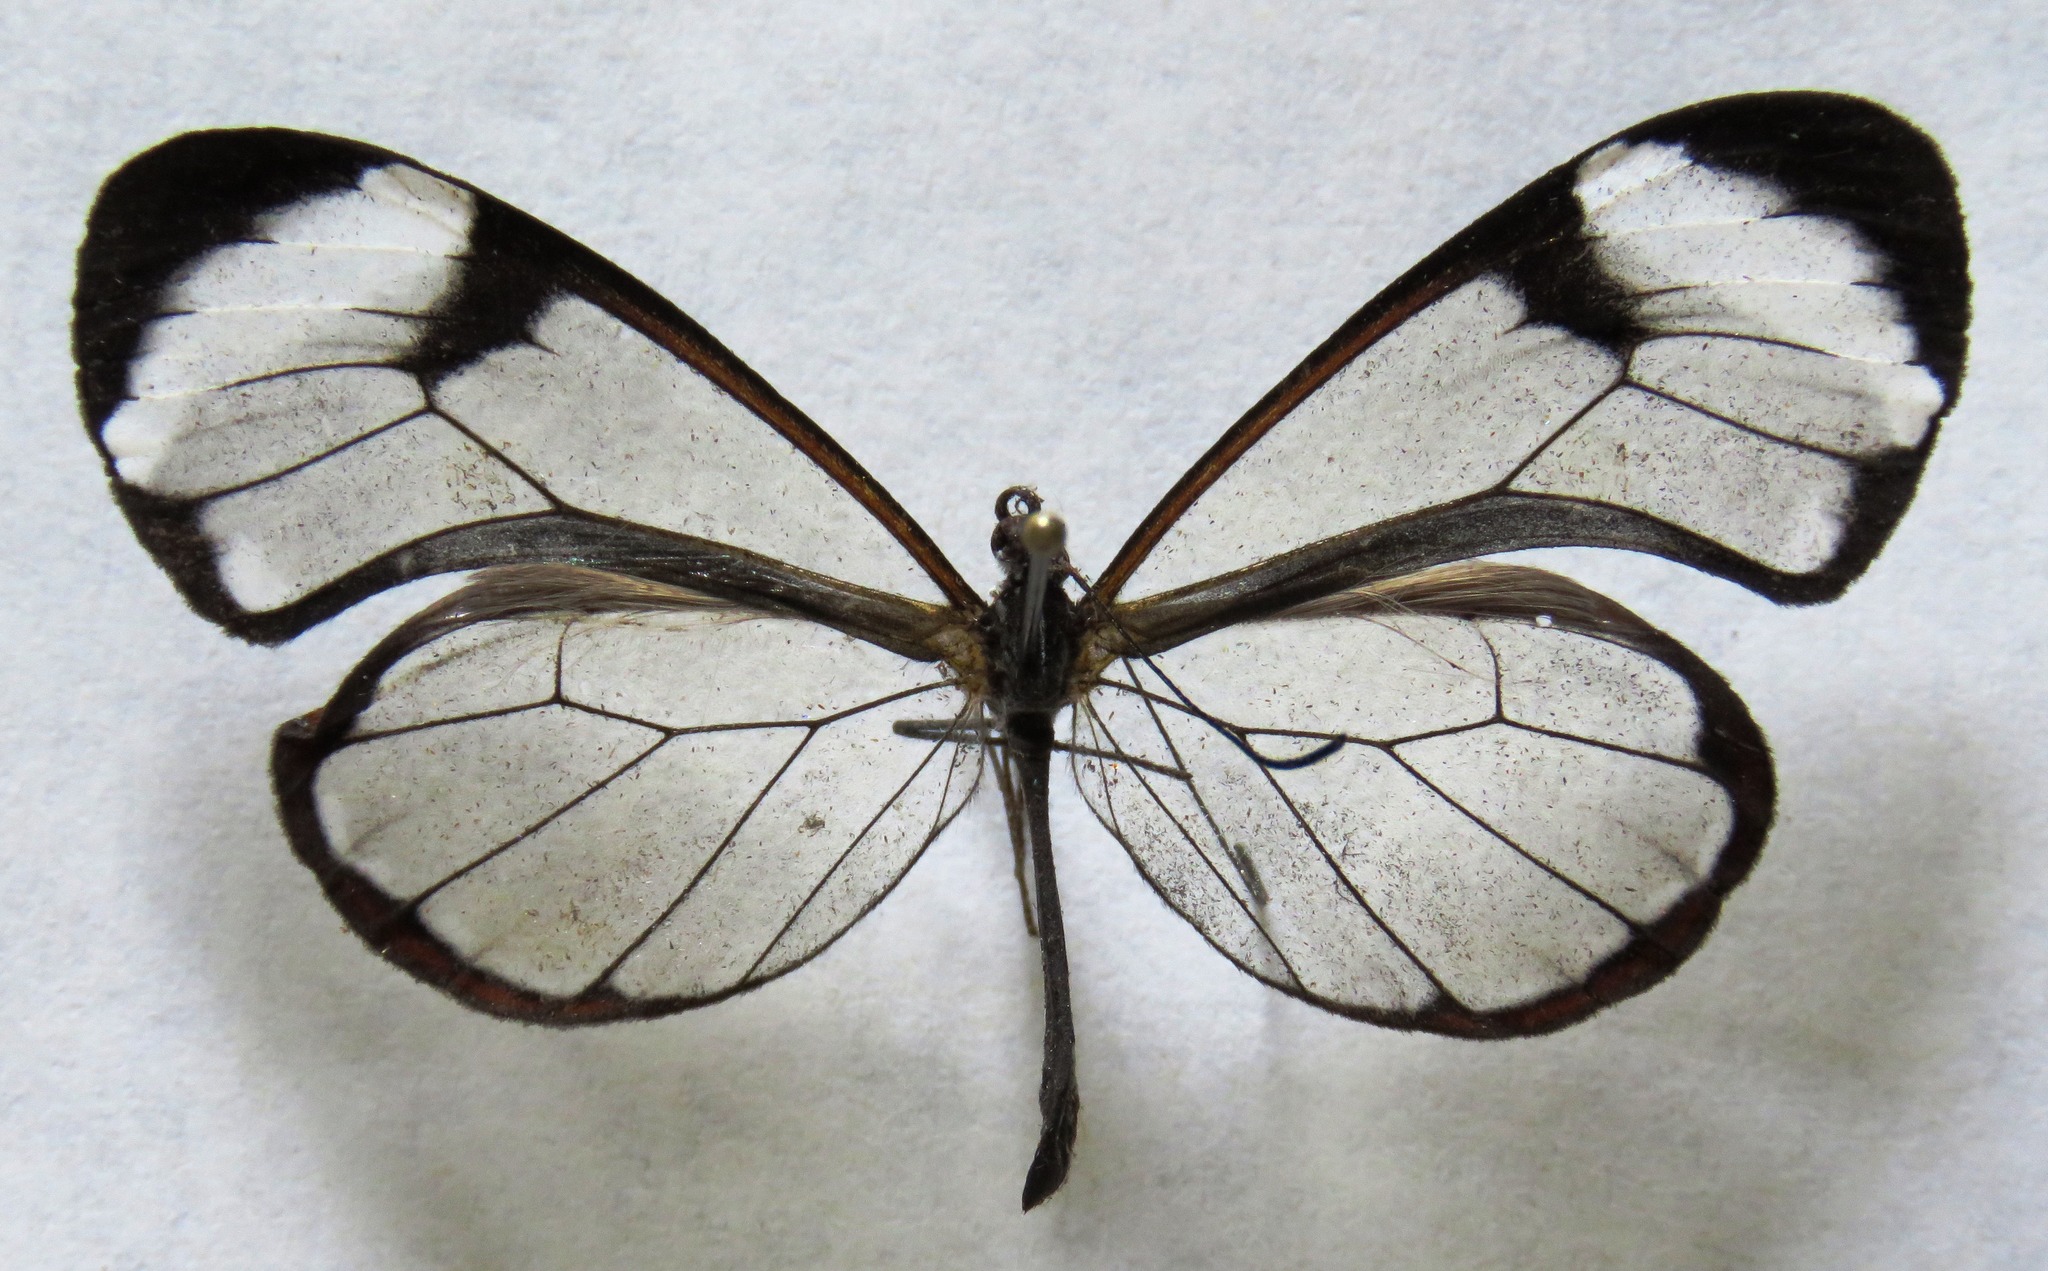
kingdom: Animalia
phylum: Arthropoda
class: Insecta
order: Lepidoptera
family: Nymphalidae
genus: Greta
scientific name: Greta morgane
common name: Thick-tipped greta
